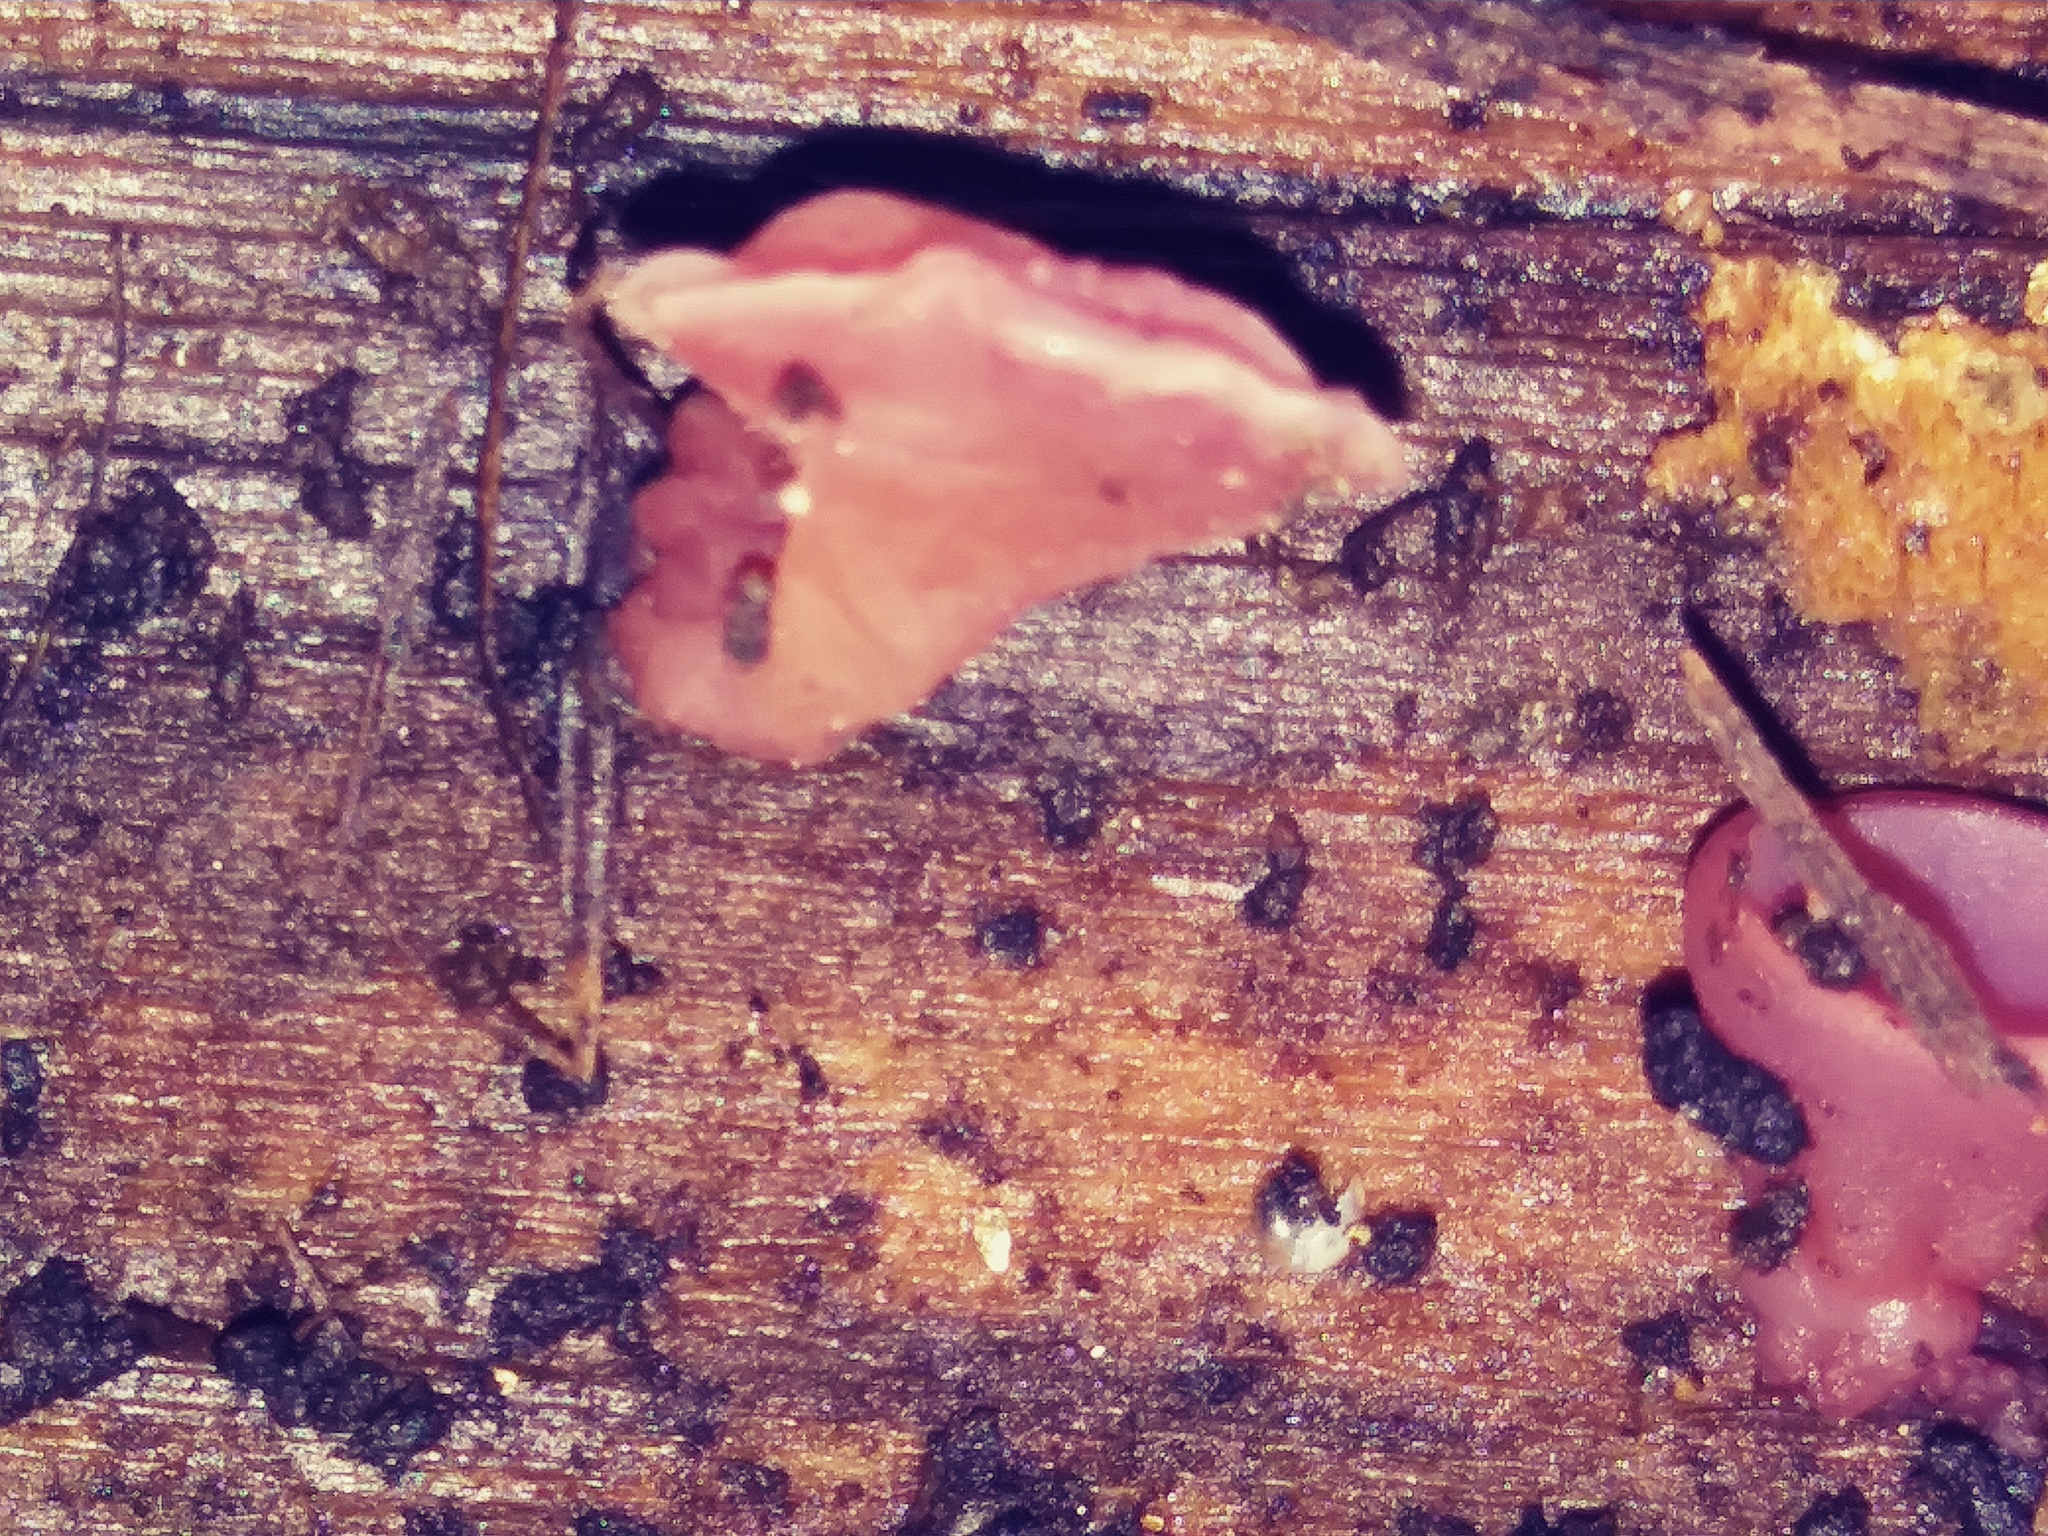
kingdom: Fungi
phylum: Ascomycota
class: Leotiomycetes
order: Helotiales
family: Gelatinodiscaceae
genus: Ascocoryne
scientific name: Ascocoryne sarcoides
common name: Purple jellydisc
